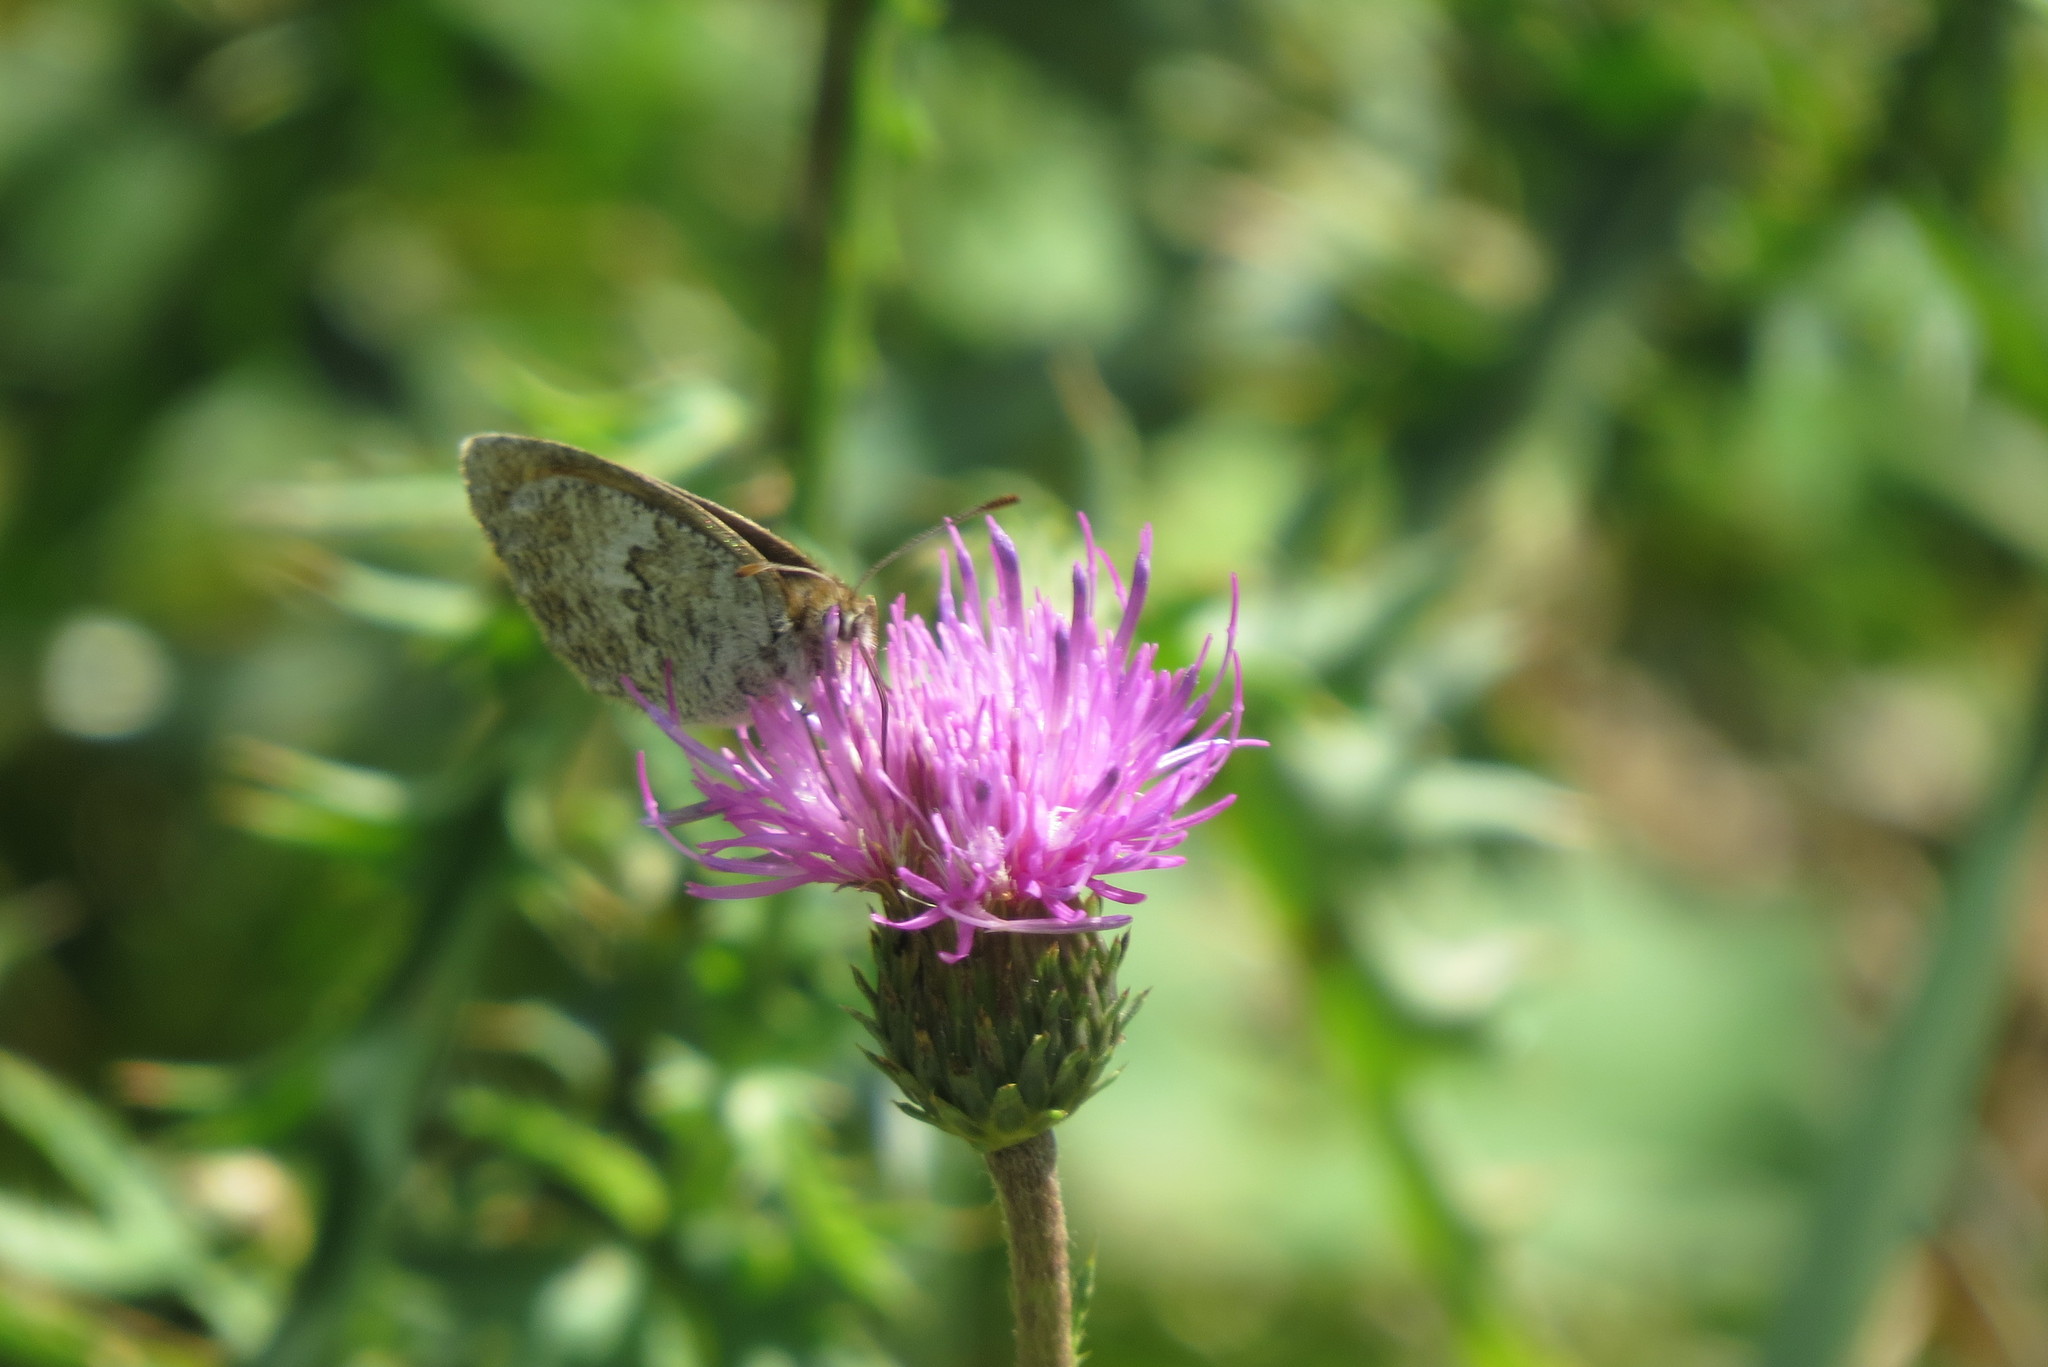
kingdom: Animalia
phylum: Arthropoda
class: Insecta
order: Lepidoptera
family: Nymphalidae
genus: Erebia
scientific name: Erebia cassioides
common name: Common brassy ringlet
